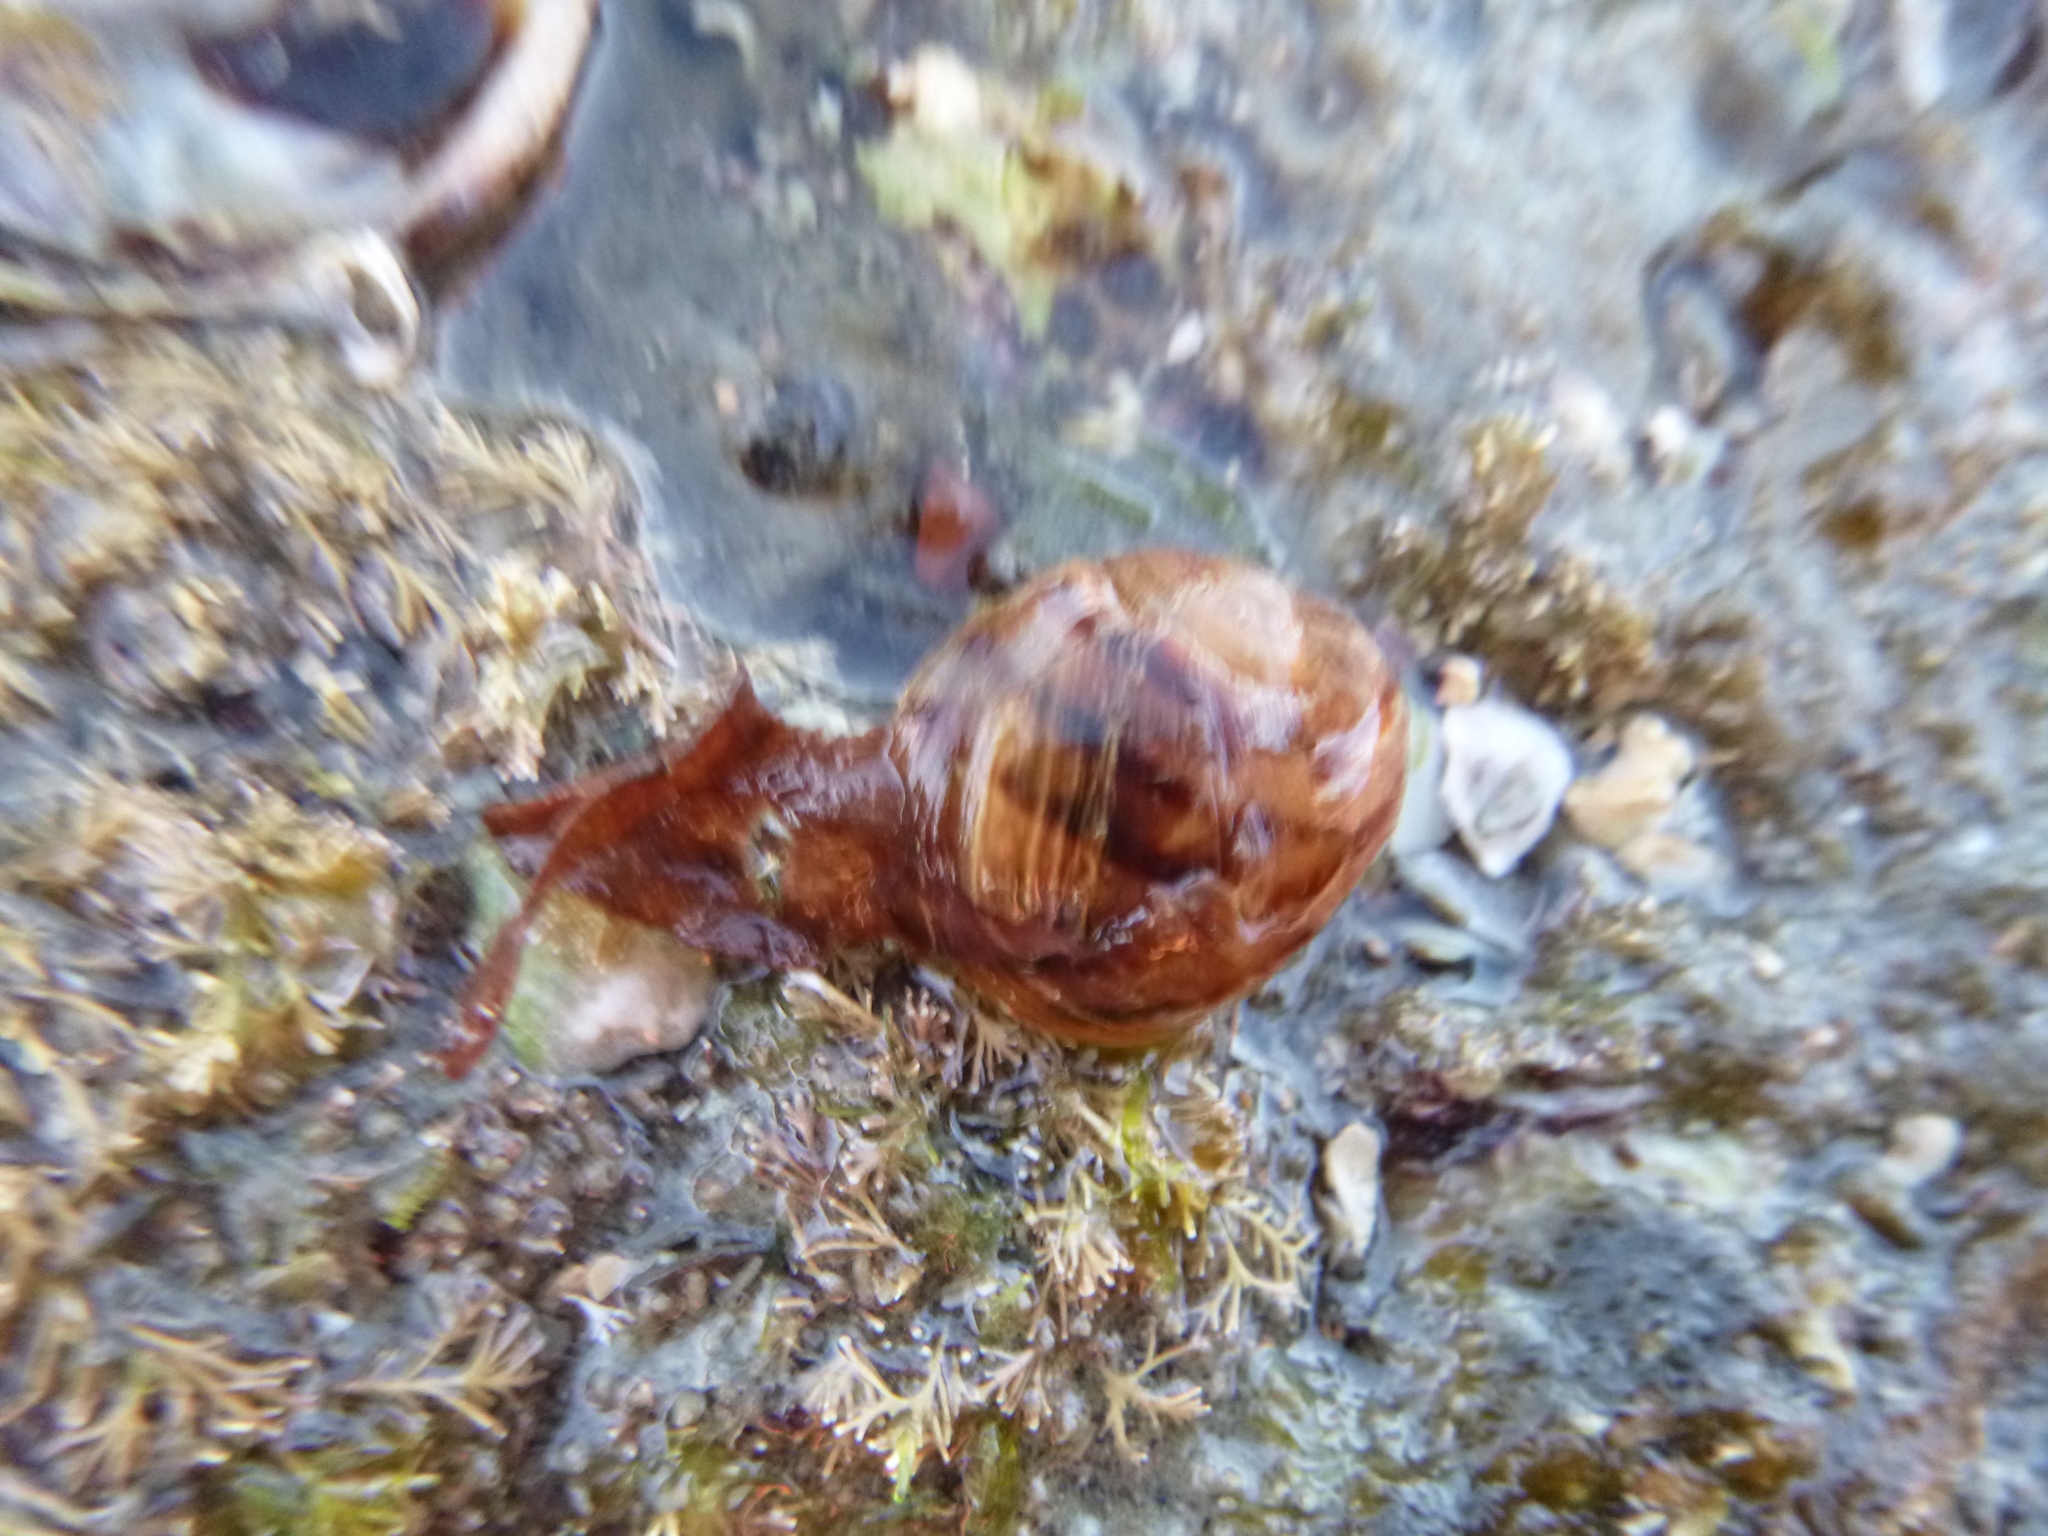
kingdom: Animalia
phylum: Mollusca
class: Gastropoda
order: Stylommatophora
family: Helicidae
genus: Cornu
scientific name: Cornu aspersum
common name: Brown garden snail
